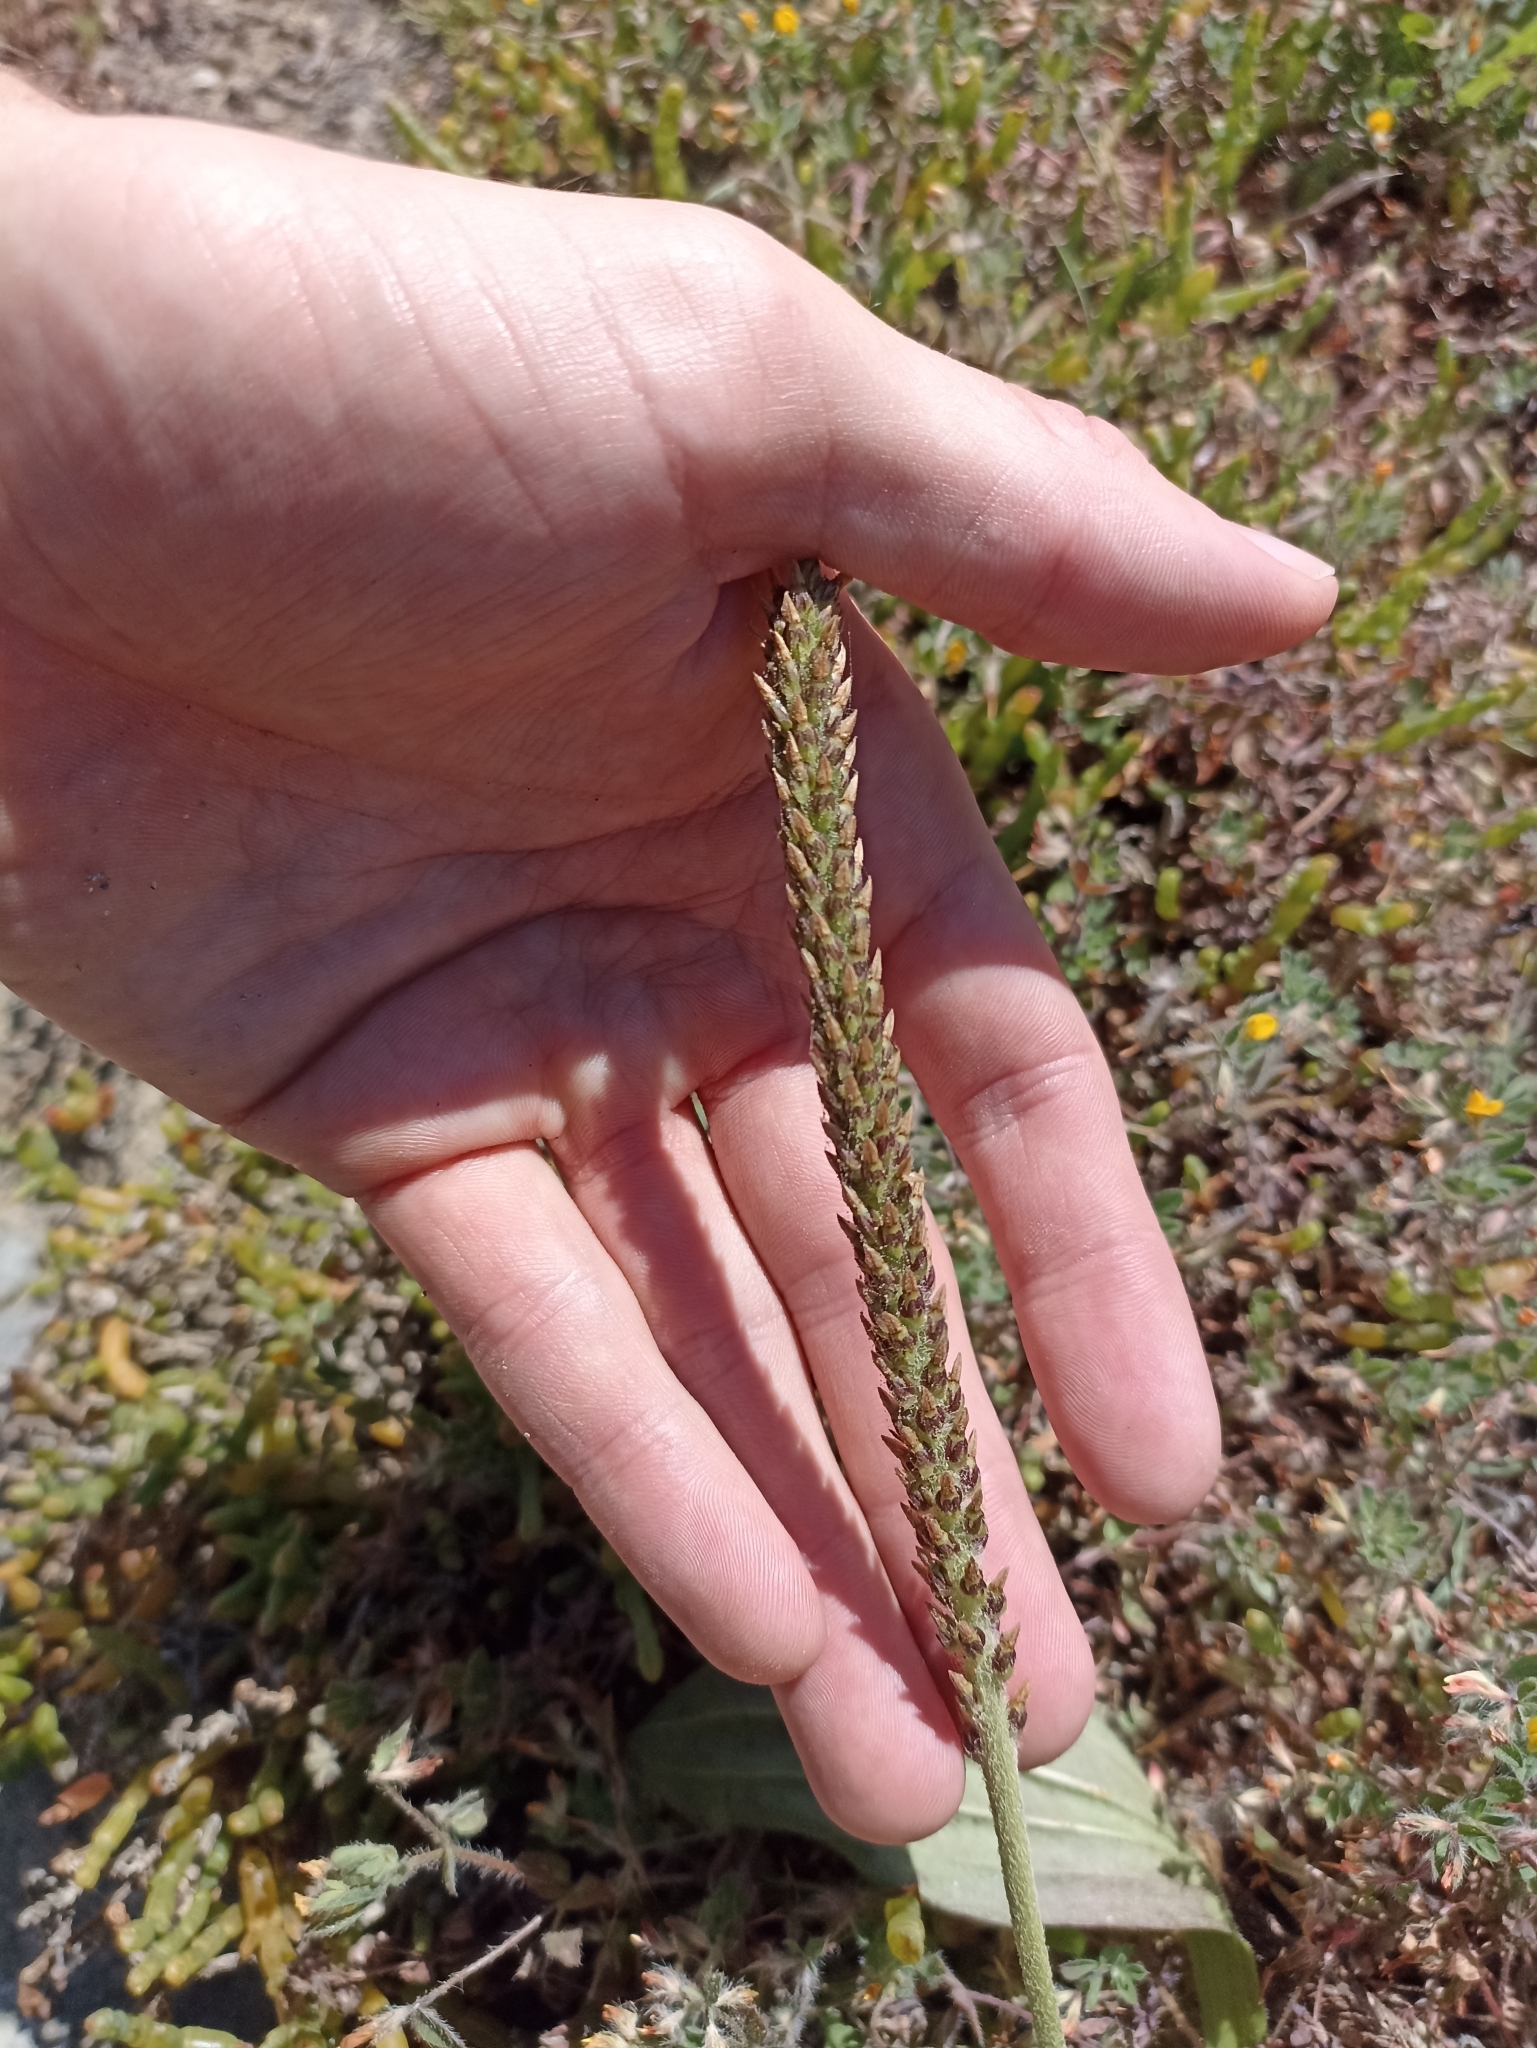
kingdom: Plantae
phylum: Tracheophyta
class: Magnoliopsida
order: Lamiales
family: Plantaginaceae
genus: Plantago
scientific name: Plantago australis
